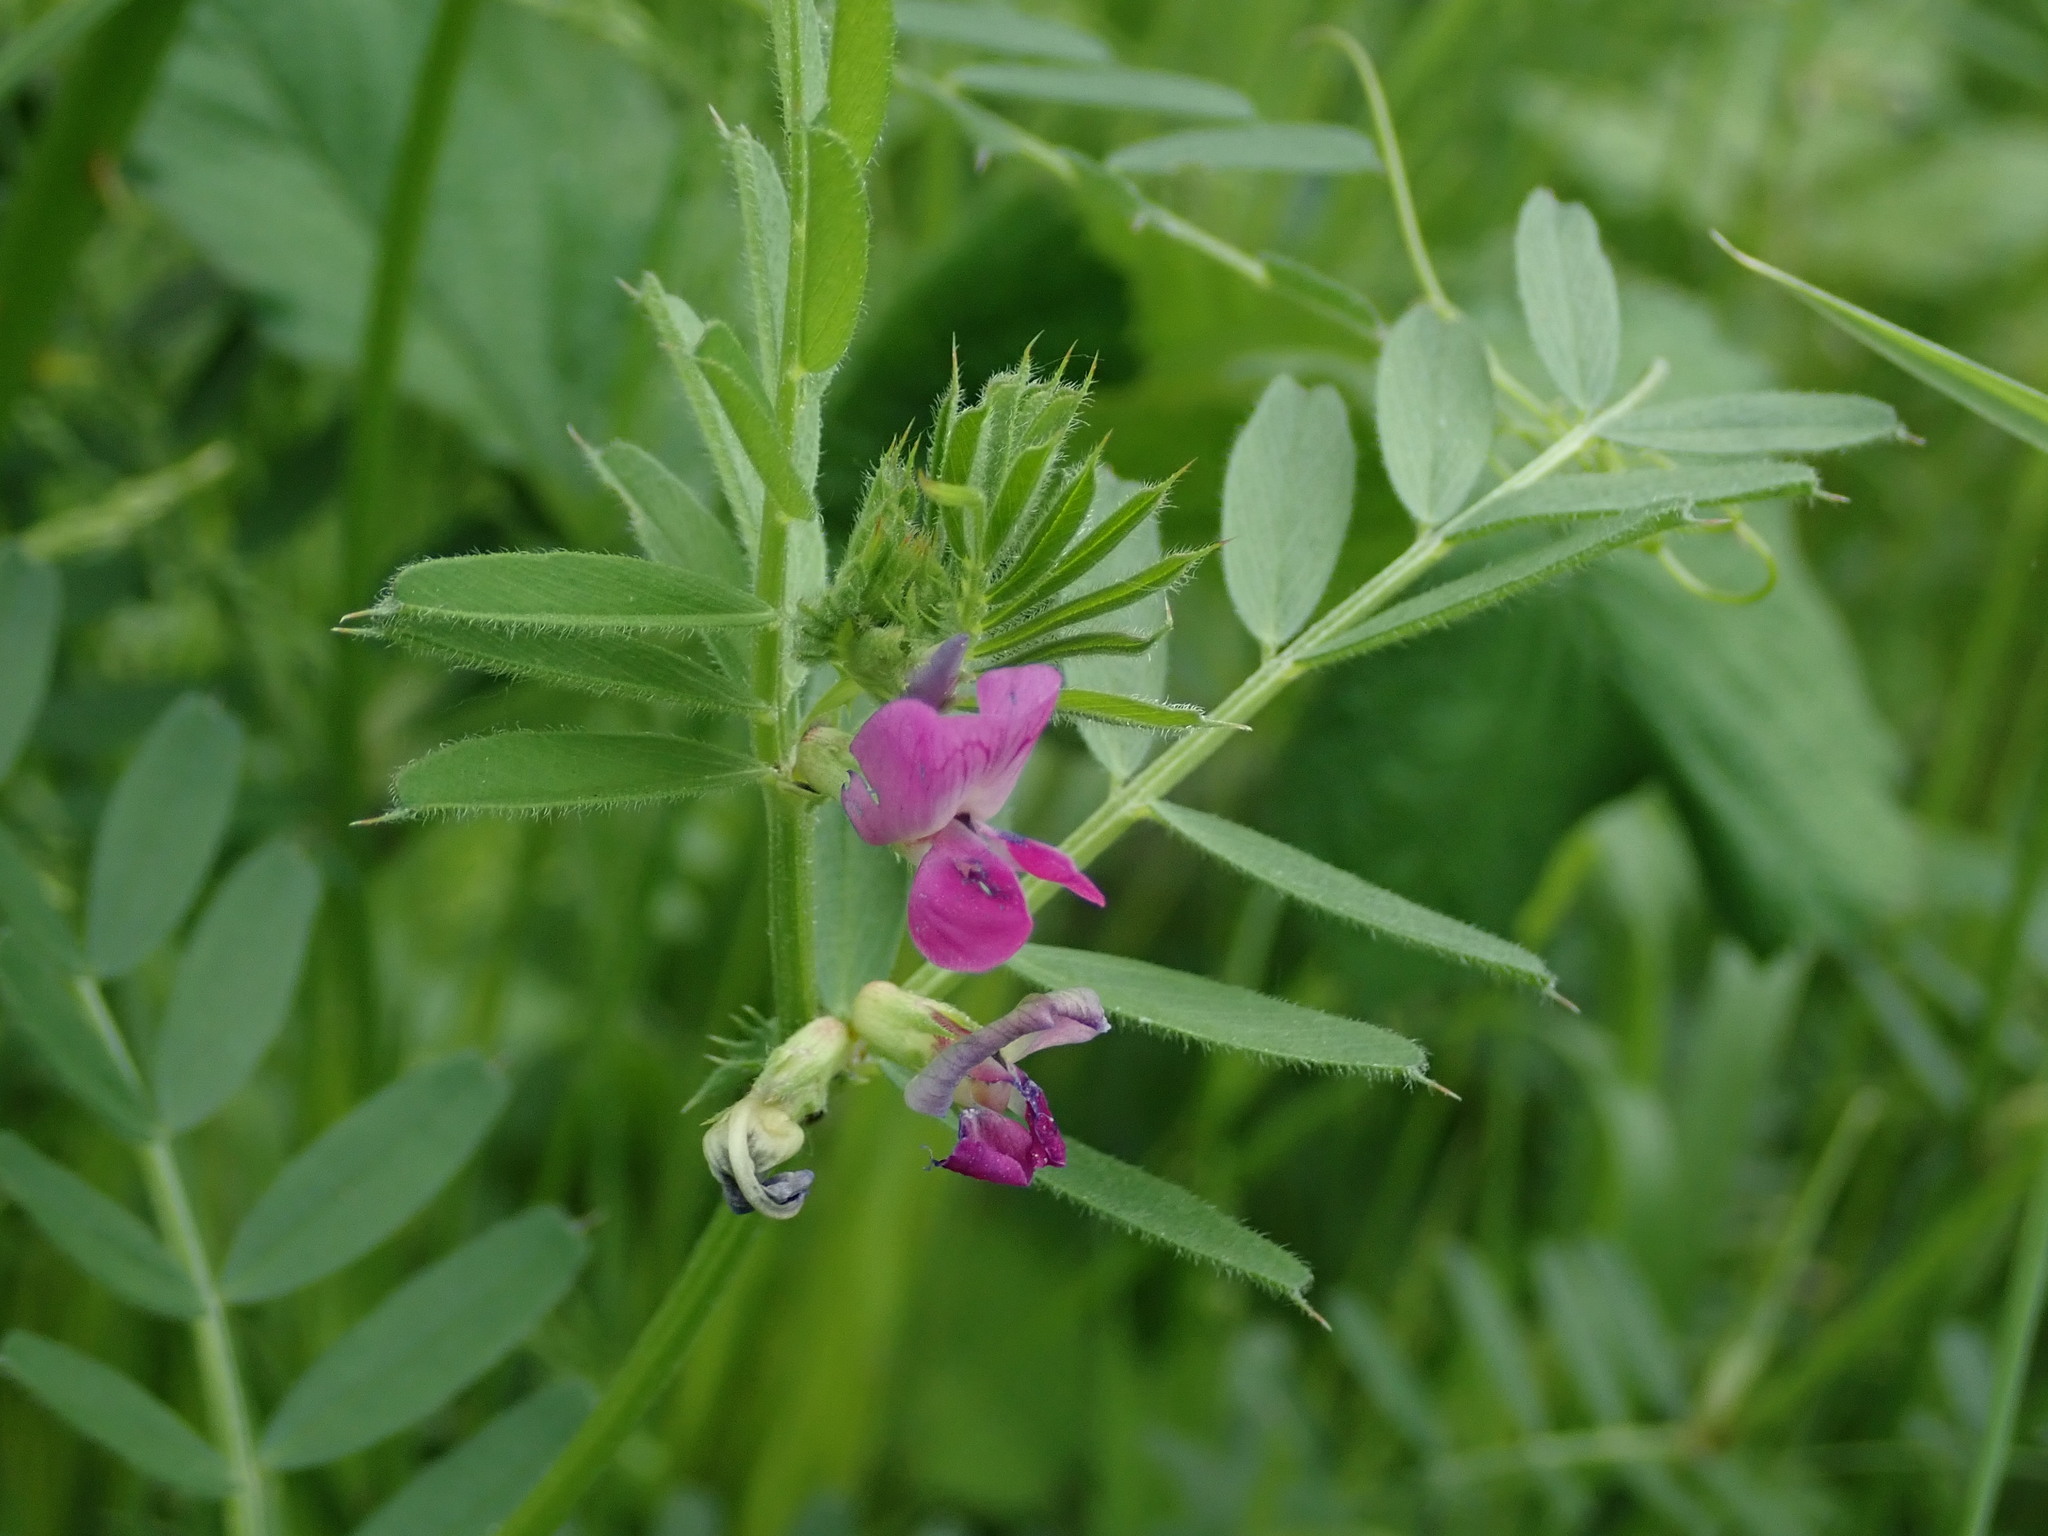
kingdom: Plantae
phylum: Tracheophyta
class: Magnoliopsida
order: Fabales
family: Fabaceae
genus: Vicia
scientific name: Vicia sativa
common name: Garden vetch
